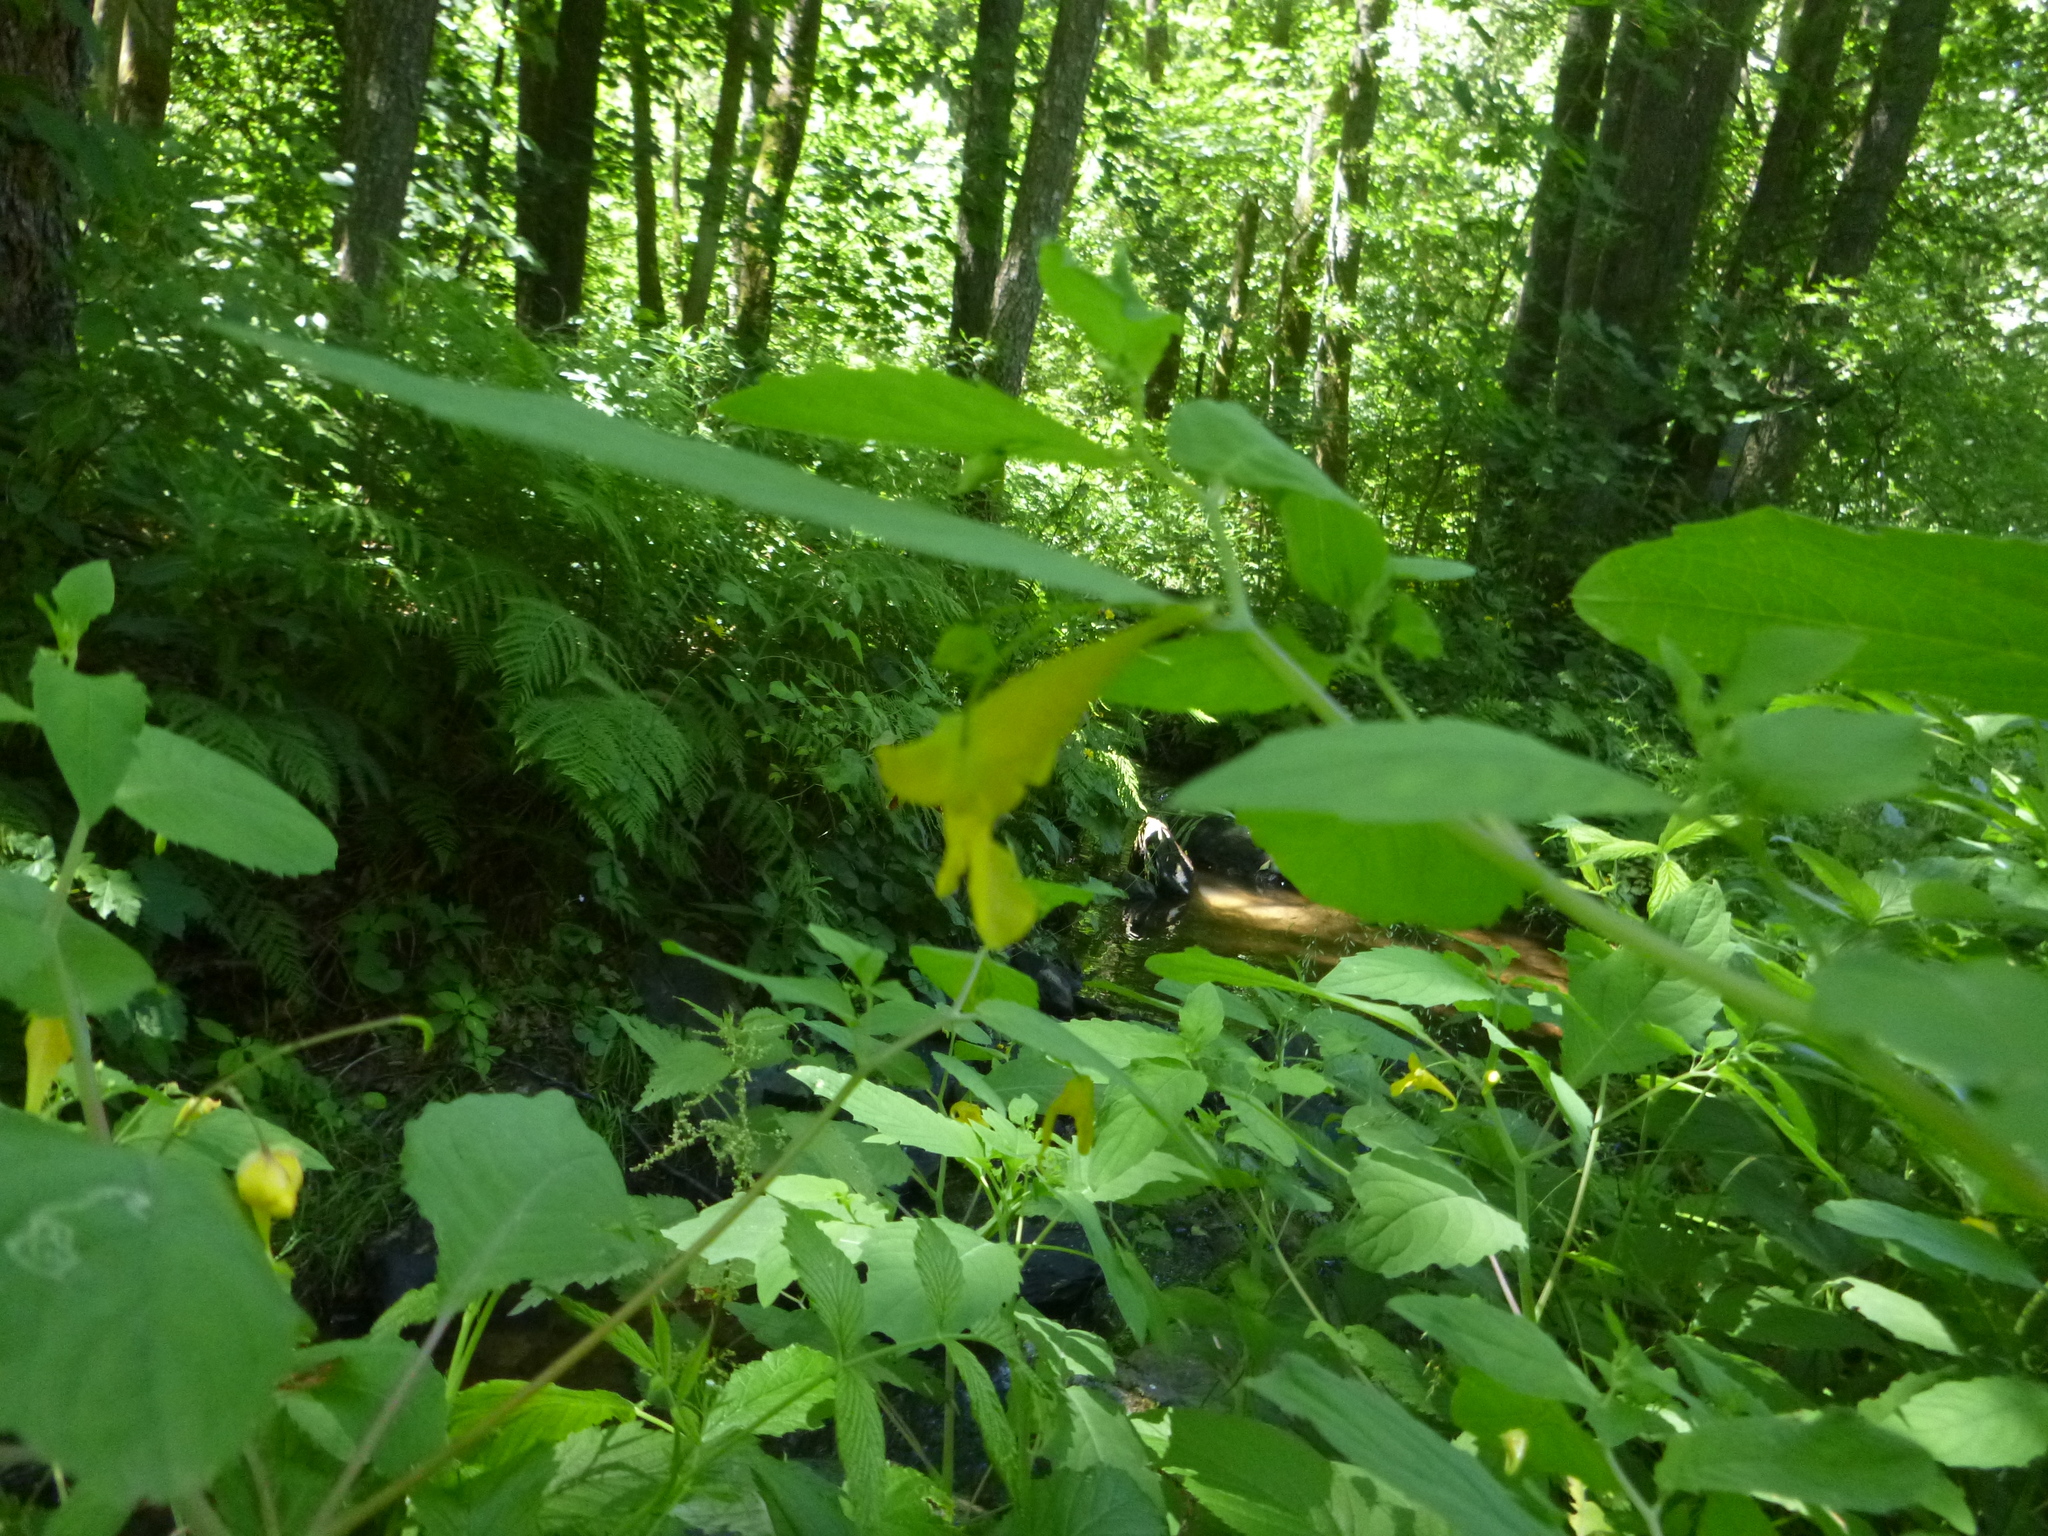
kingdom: Plantae
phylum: Tracheophyta
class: Magnoliopsida
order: Ericales
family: Balsaminaceae
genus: Impatiens
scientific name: Impatiens noli-tangere
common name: Touch-me-not balsam
